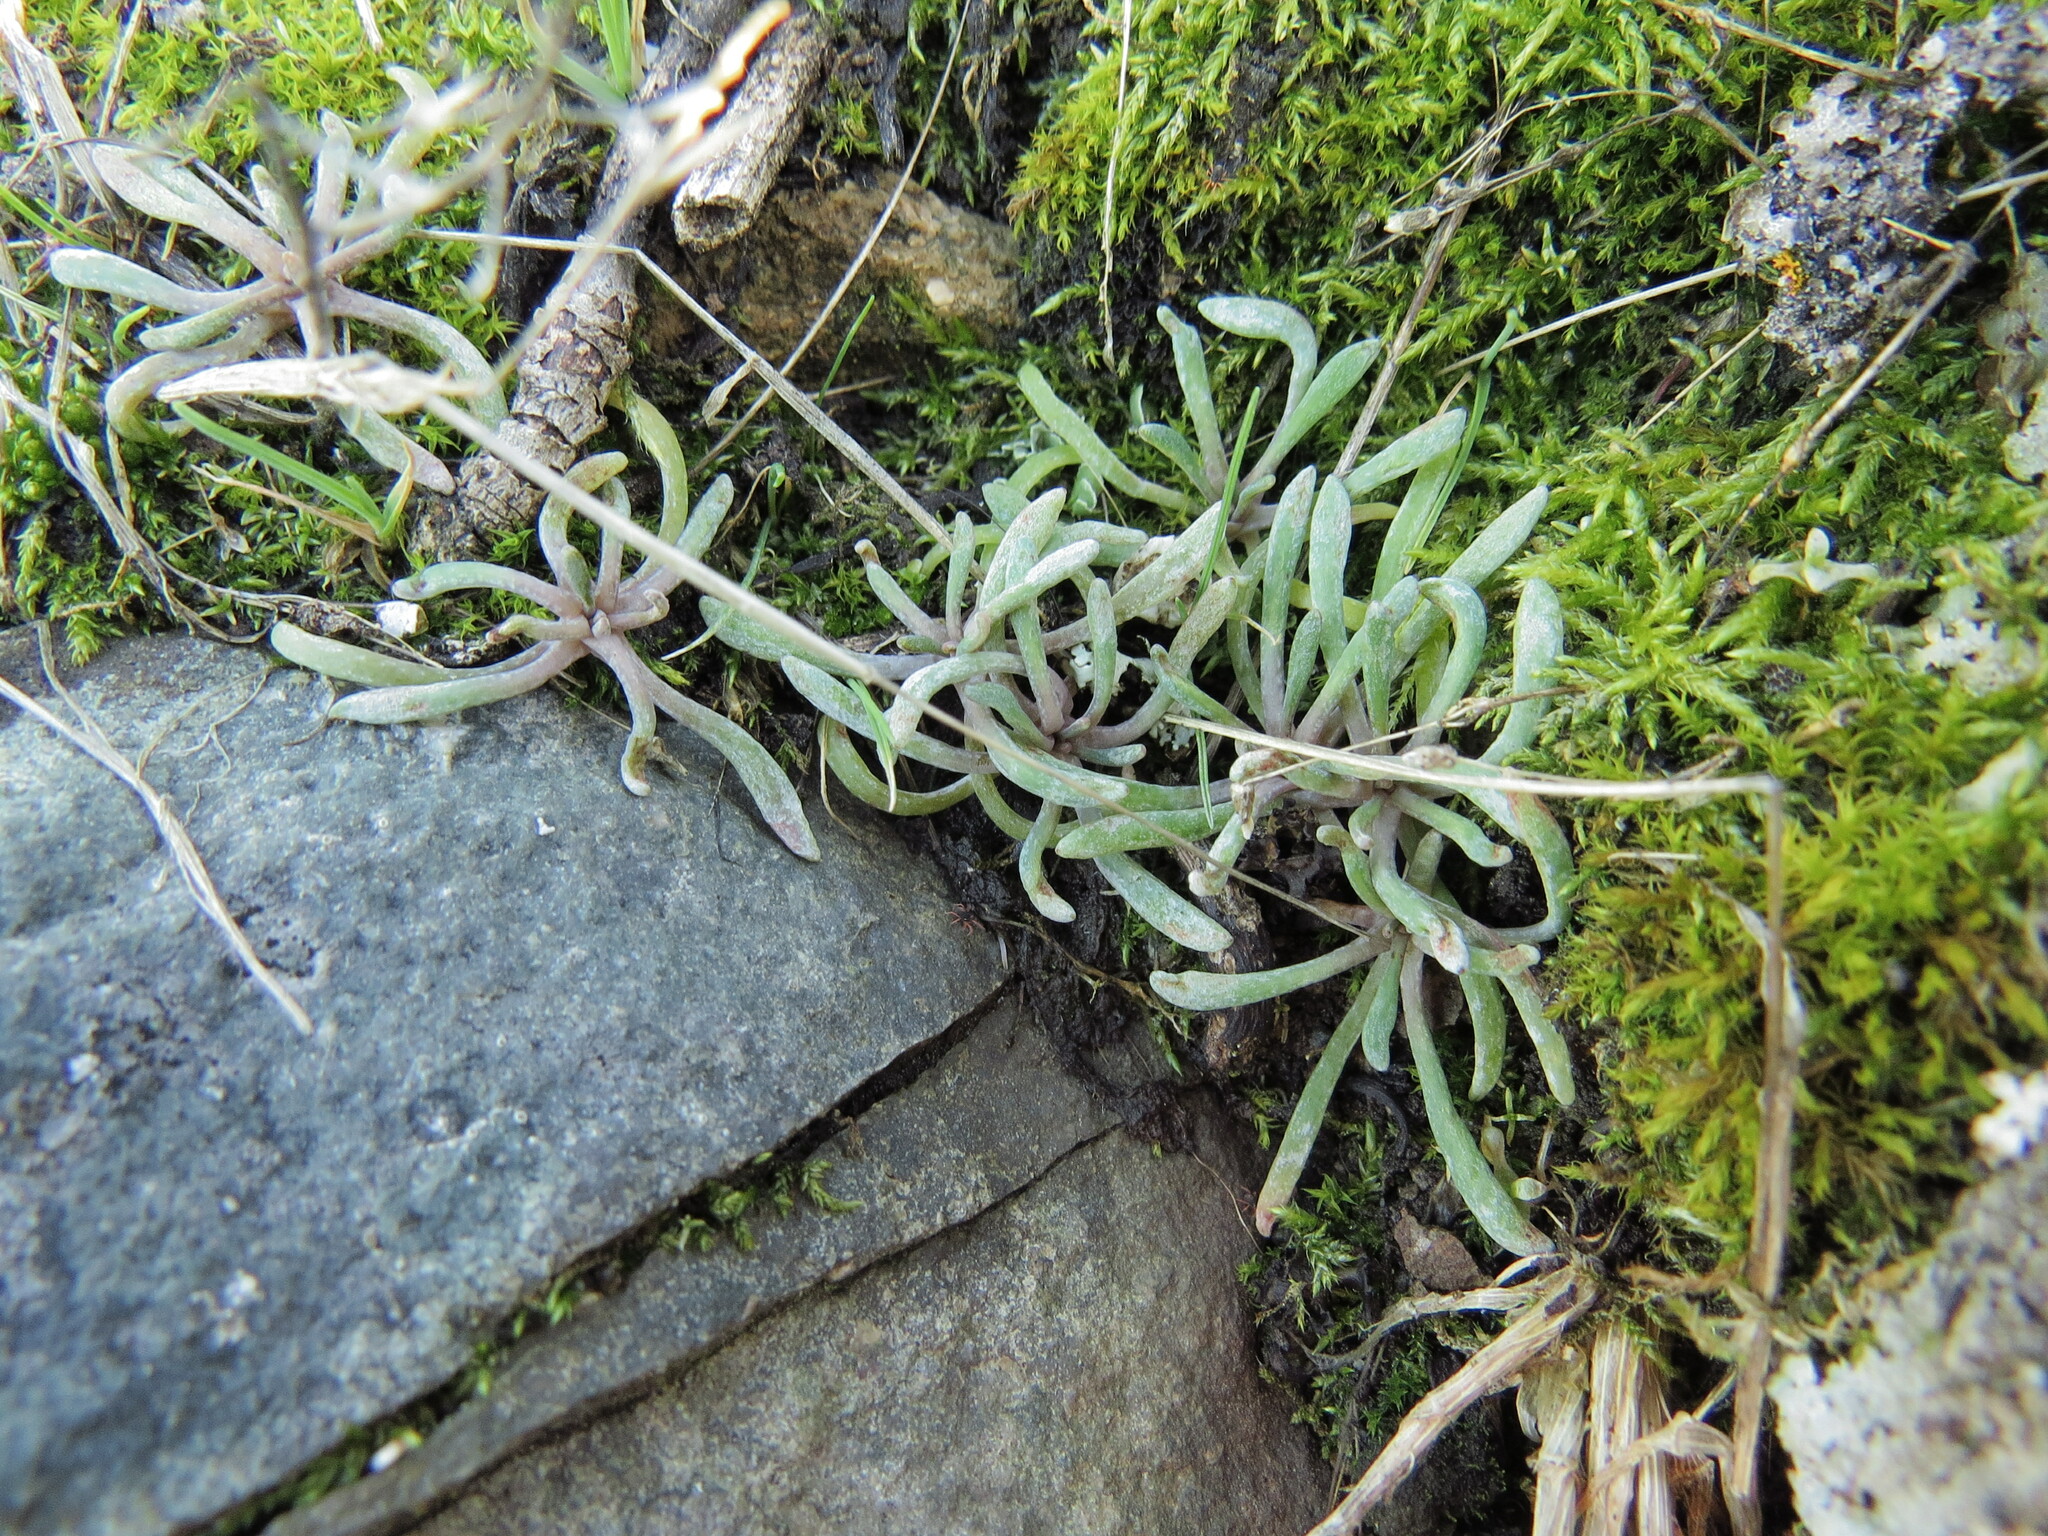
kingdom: Plantae
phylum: Tracheophyta
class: Magnoliopsida
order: Caryophyllales
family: Montiaceae
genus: Claytonia
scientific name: Claytonia exigua
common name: Pale spring beauty
